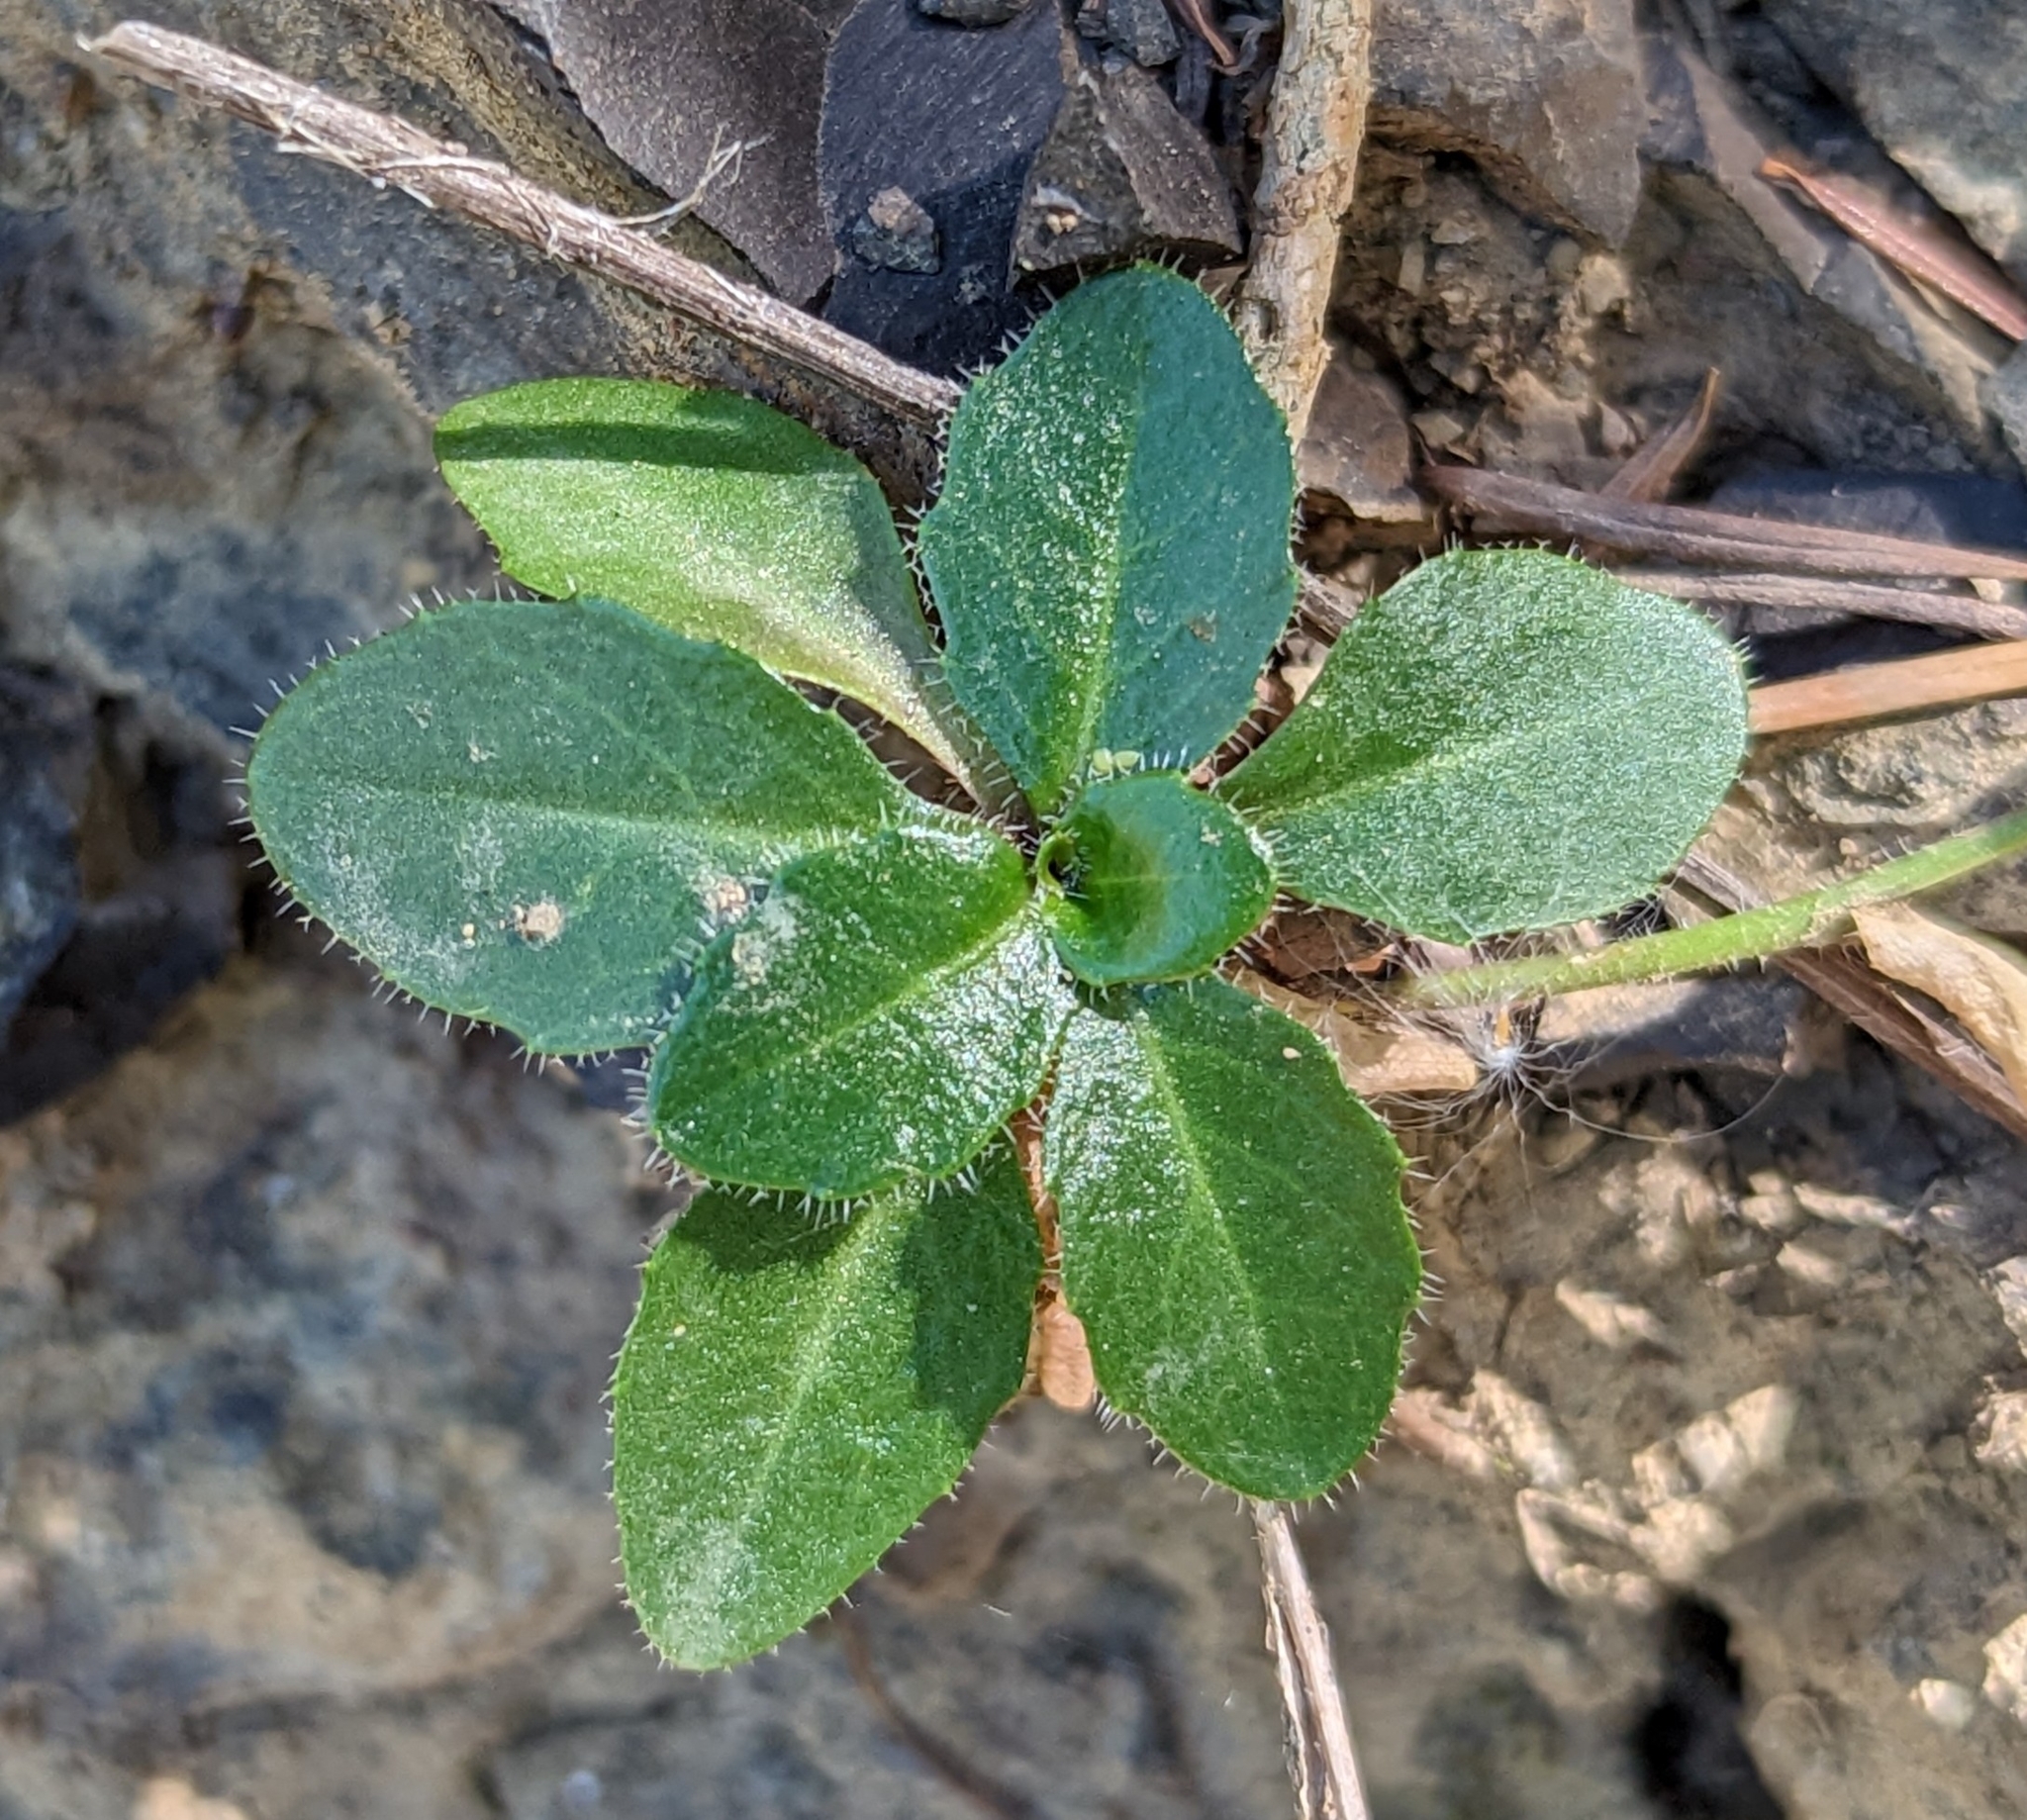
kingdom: Plantae
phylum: Tracheophyta
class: Magnoliopsida
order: Brassicales
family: Brassicaceae
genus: Arabis
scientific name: Arabis olympica
